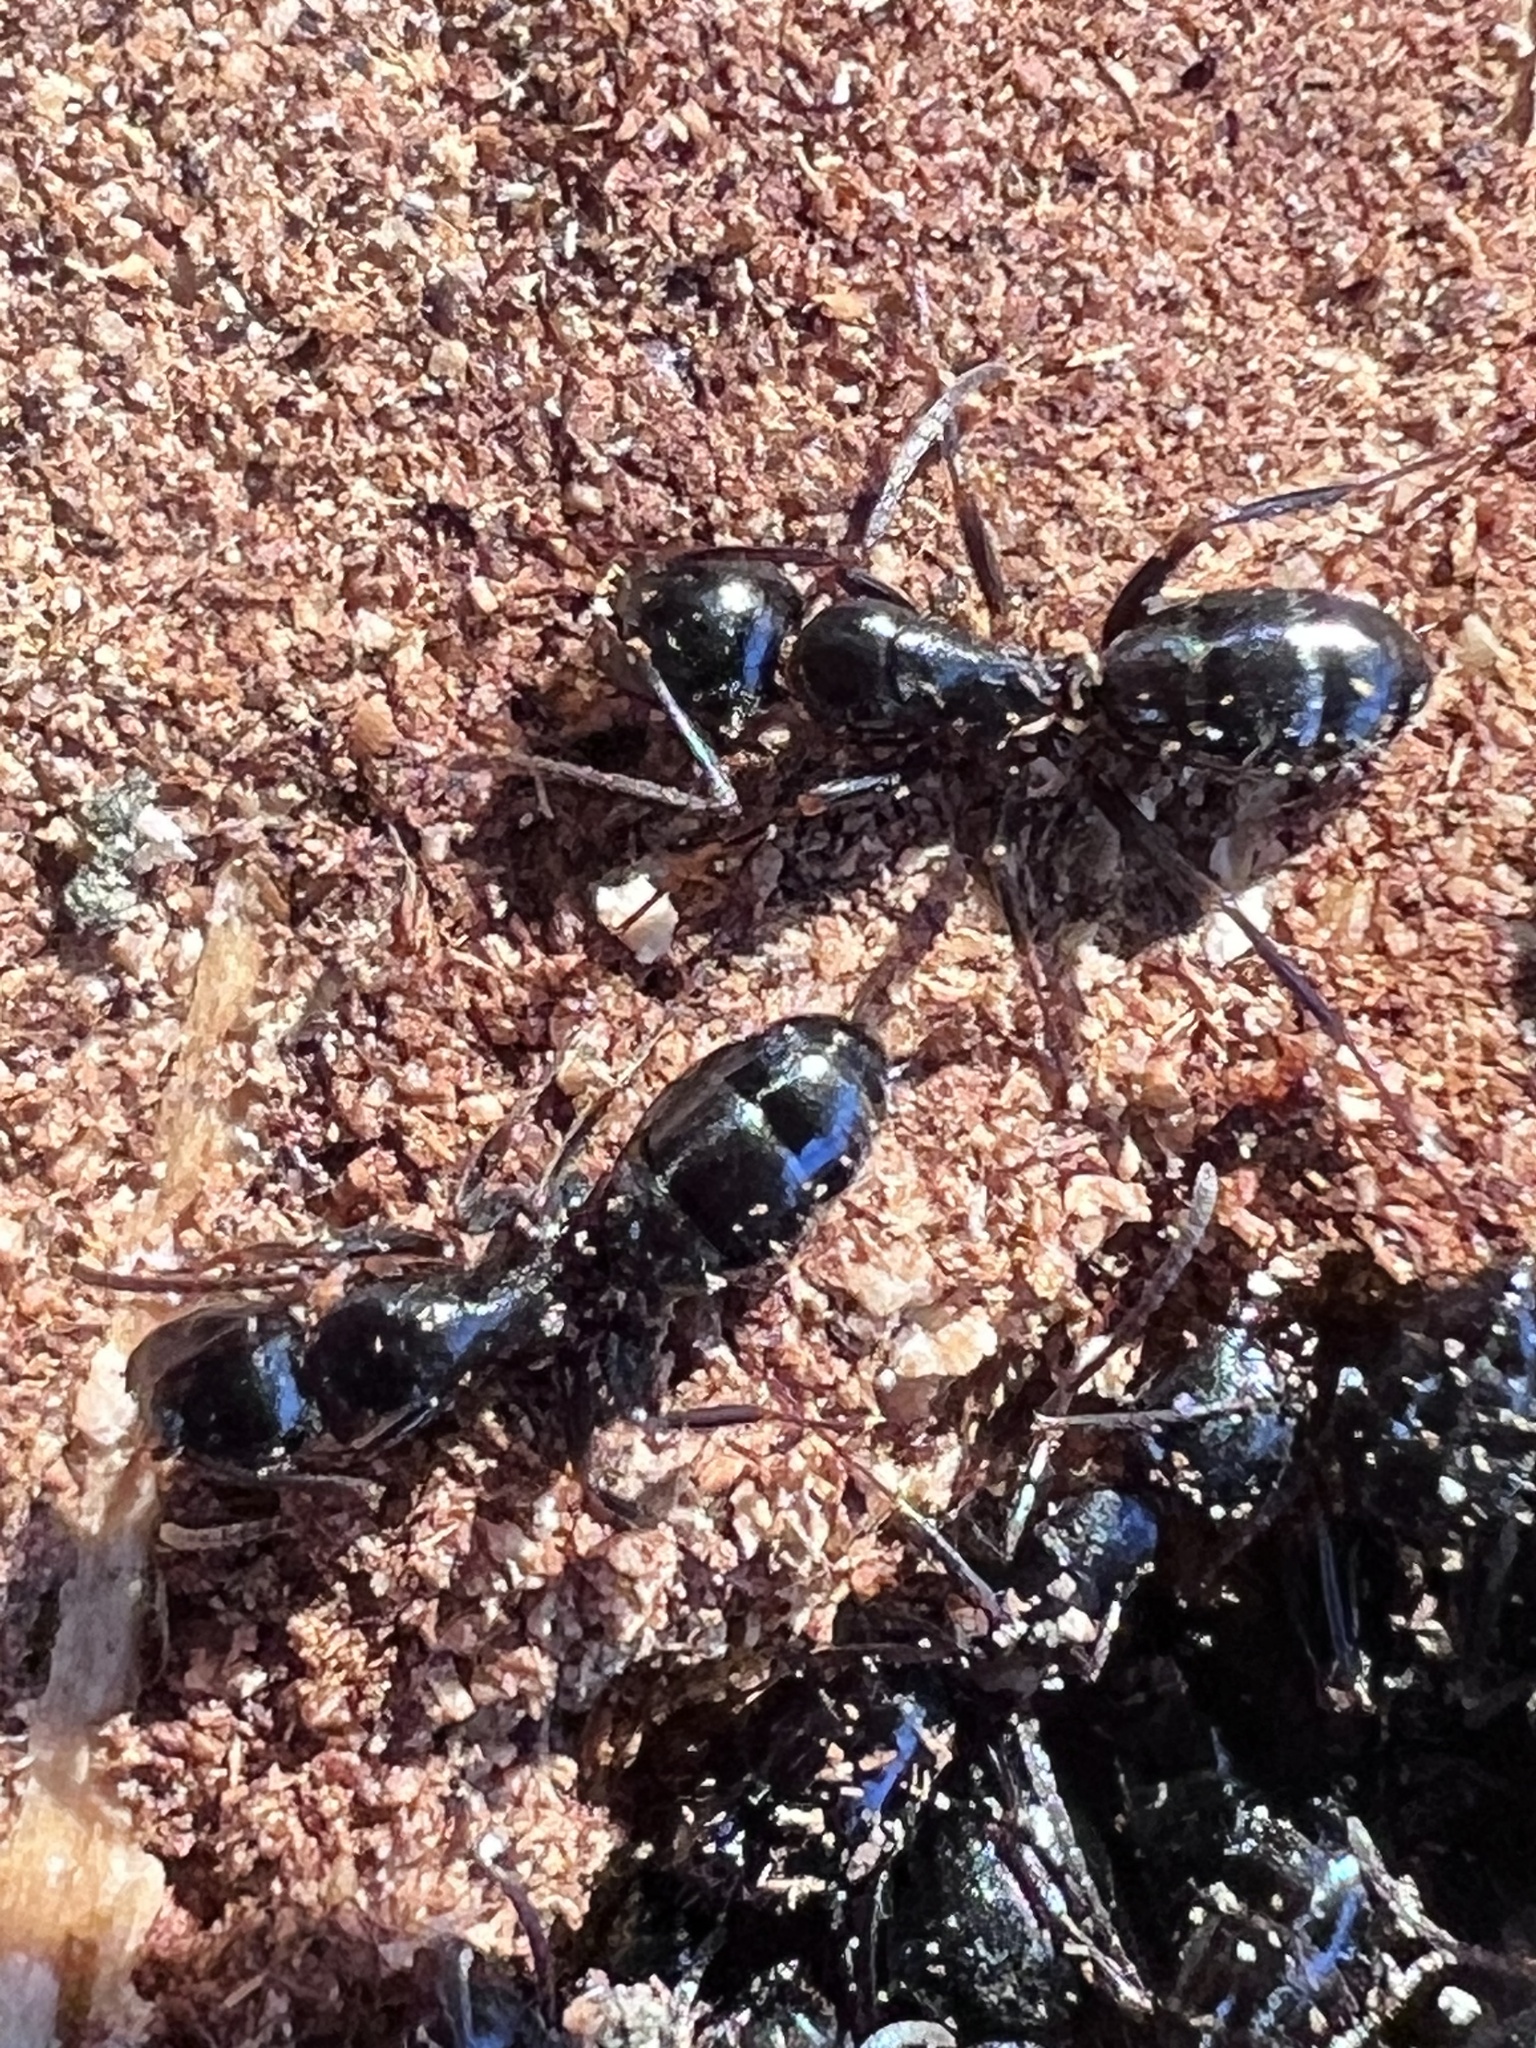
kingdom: Animalia
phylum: Arthropoda
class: Insecta
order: Hymenoptera
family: Formicidae
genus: Camponotus
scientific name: Camponotus nearcticus
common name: Smaller carpenter ant
